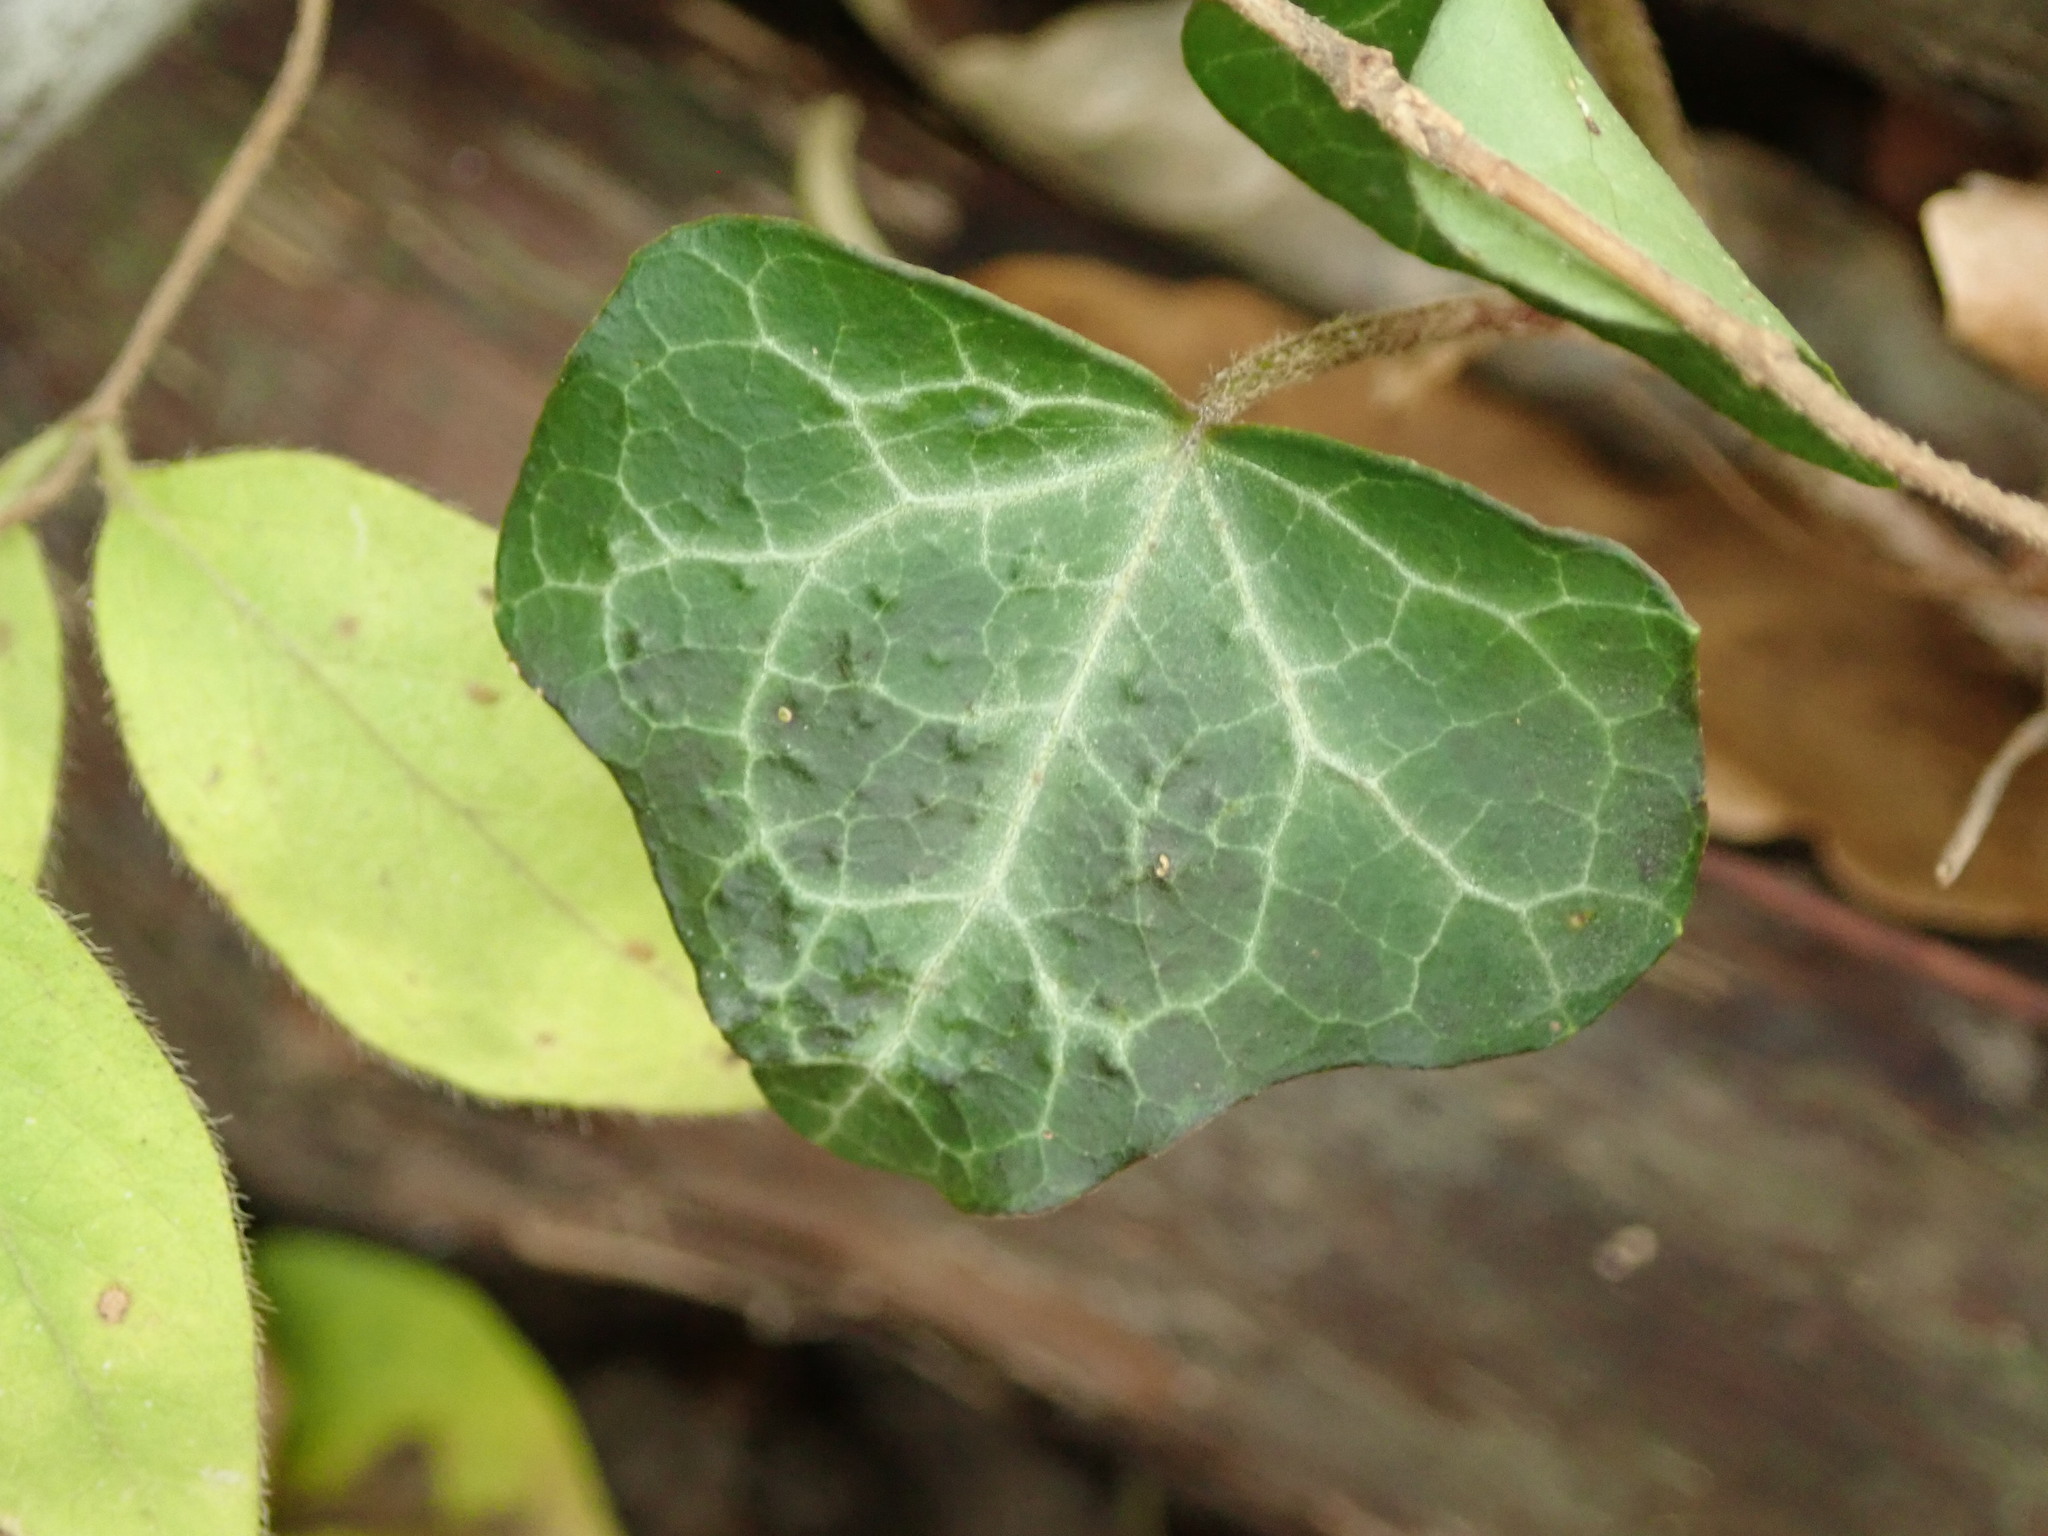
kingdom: Plantae
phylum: Tracheophyta
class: Magnoliopsida
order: Apiales
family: Araliaceae
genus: Hedera
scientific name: Hedera helix
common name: Ivy
